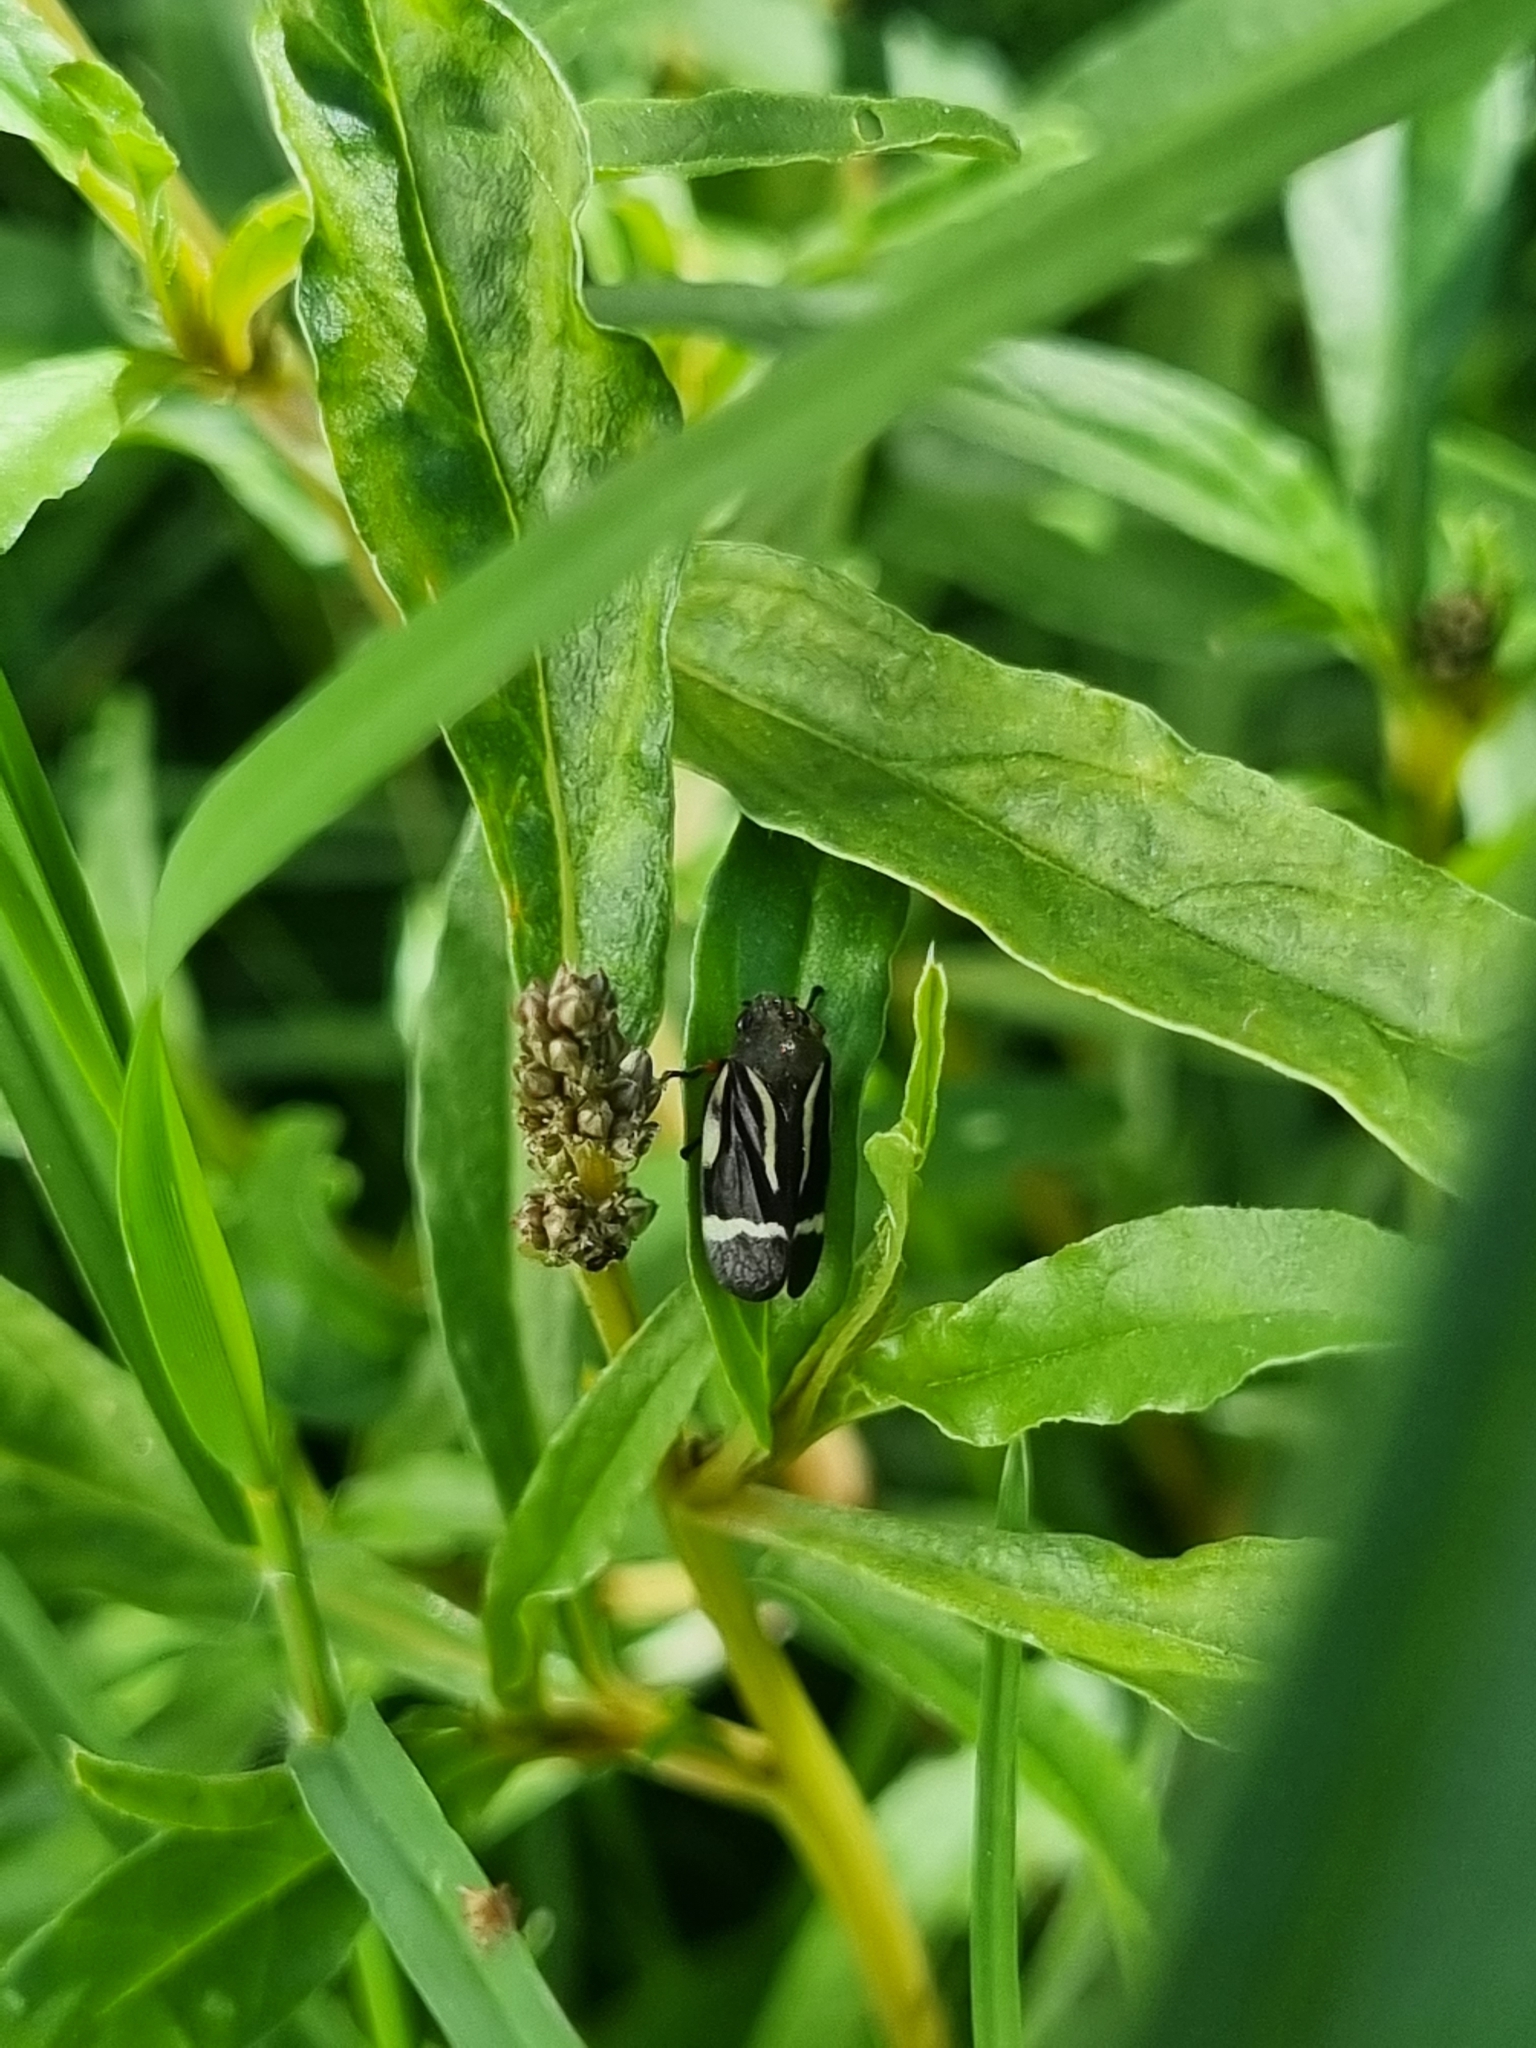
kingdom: Animalia
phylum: Arthropoda
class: Insecta
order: Hemiptera
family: Cercopidae
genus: Notozulia
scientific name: Notozulia entreriana
